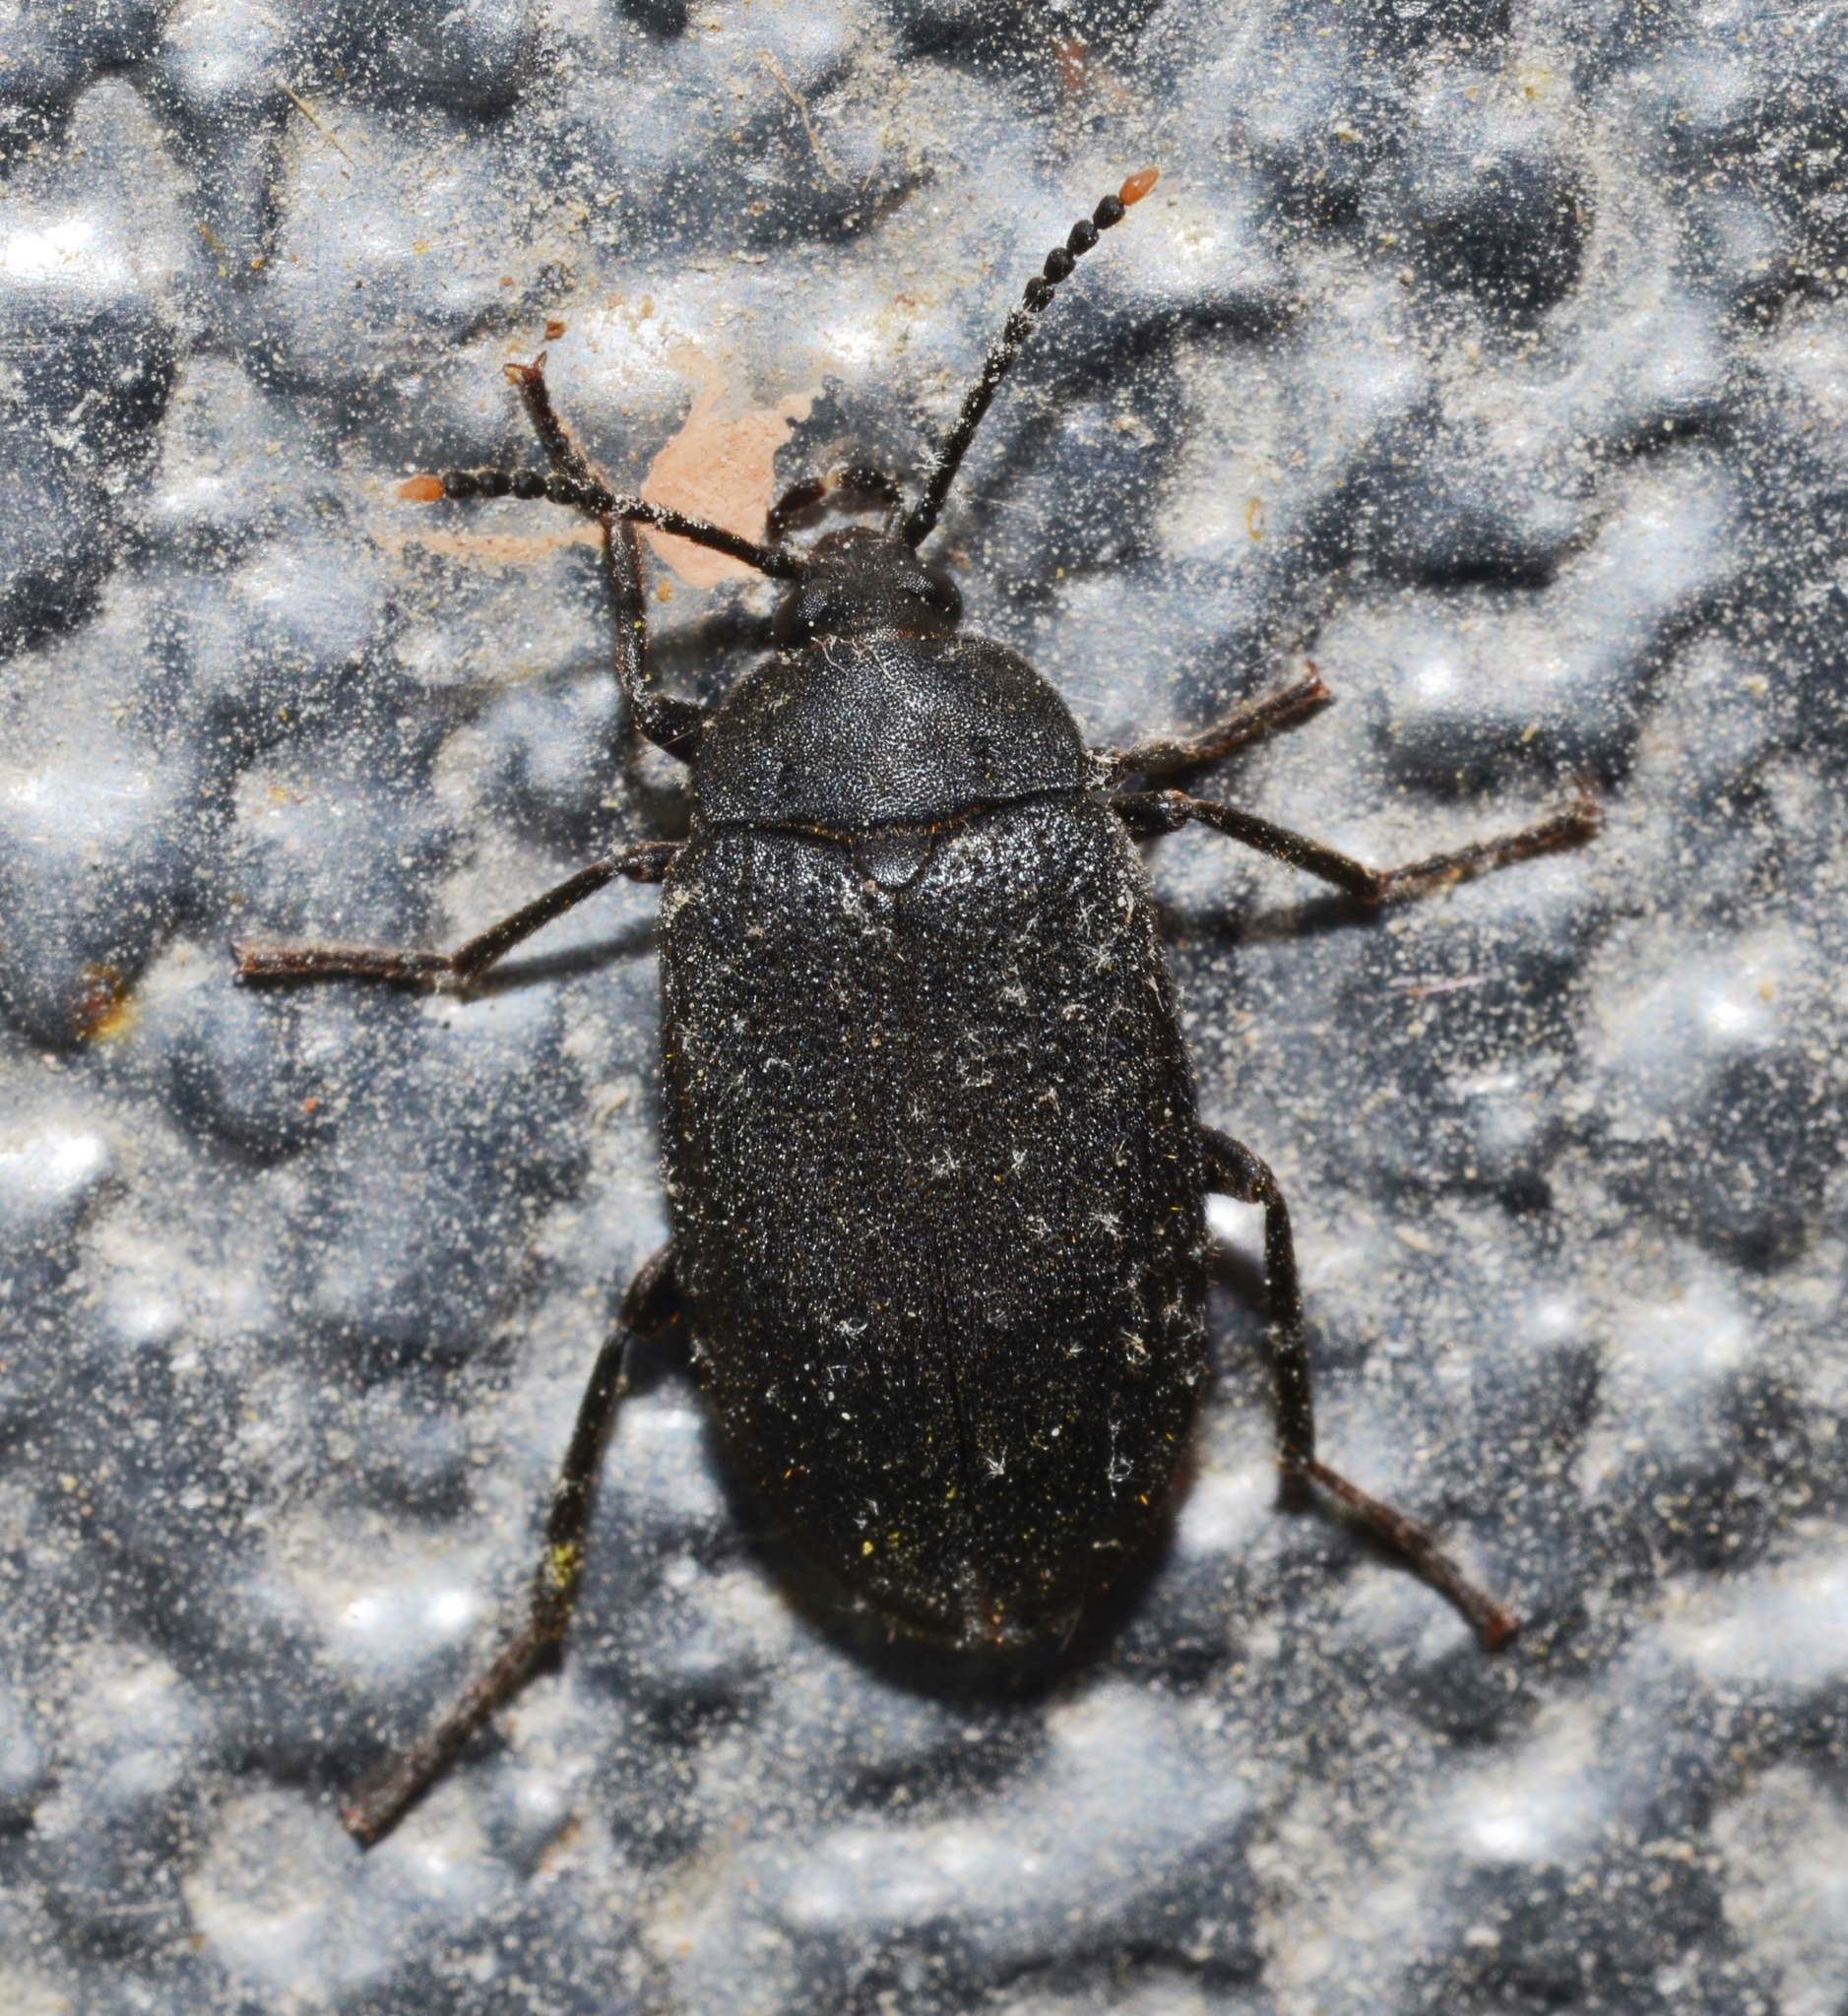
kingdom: Animalia
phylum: Arthropoda
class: Insecta
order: Coleoptera
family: Tetratomidae
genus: Penthe
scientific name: Penthe pimelia
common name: Velvety bark beetle
